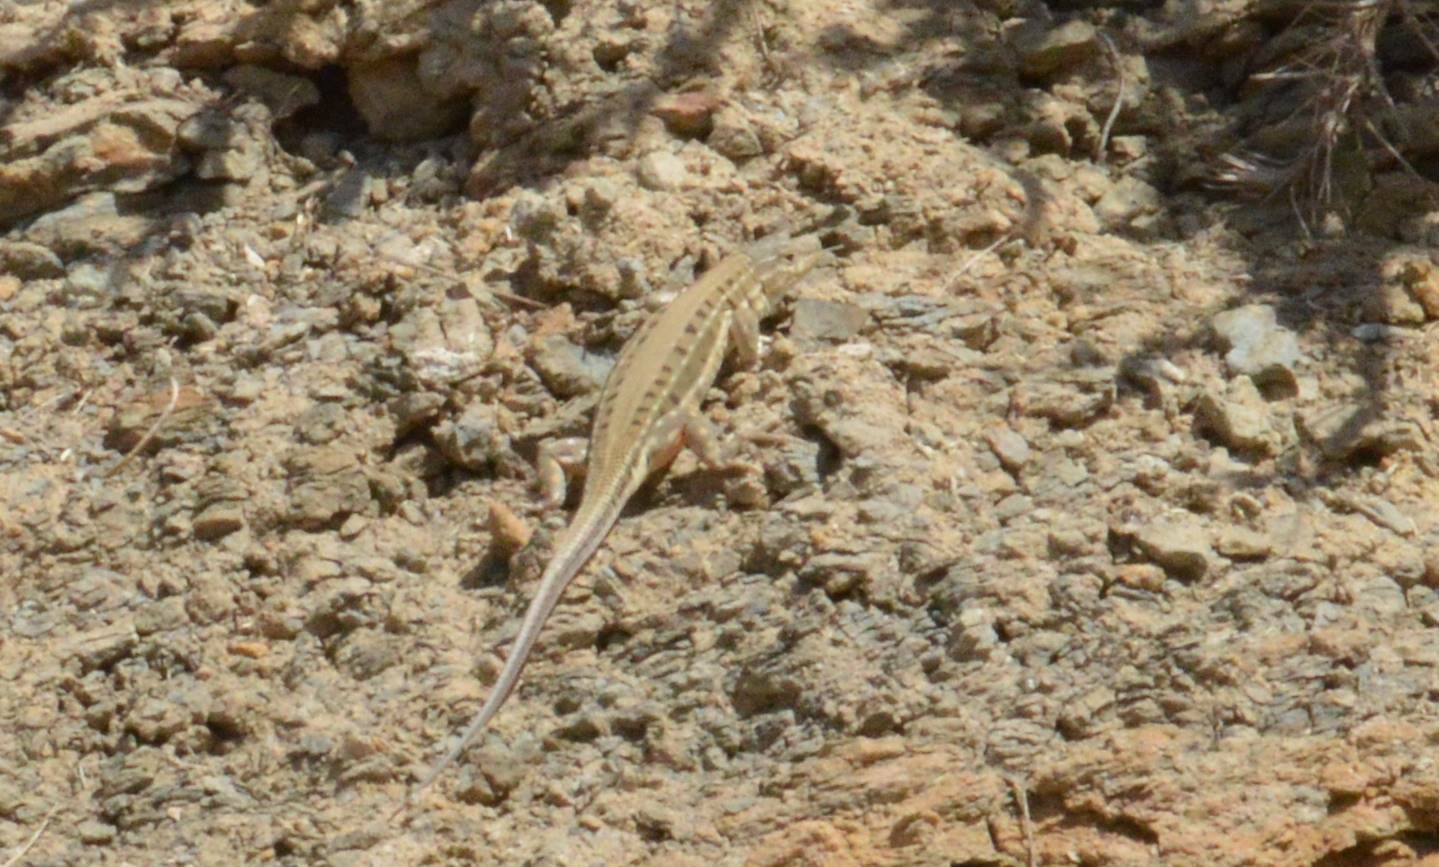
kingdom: Animalia
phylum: Chordata
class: Squamata
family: Lacertidae
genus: Acanthodactylus
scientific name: Acanthodactylus erythrurus
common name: Spiny-footed lizard
